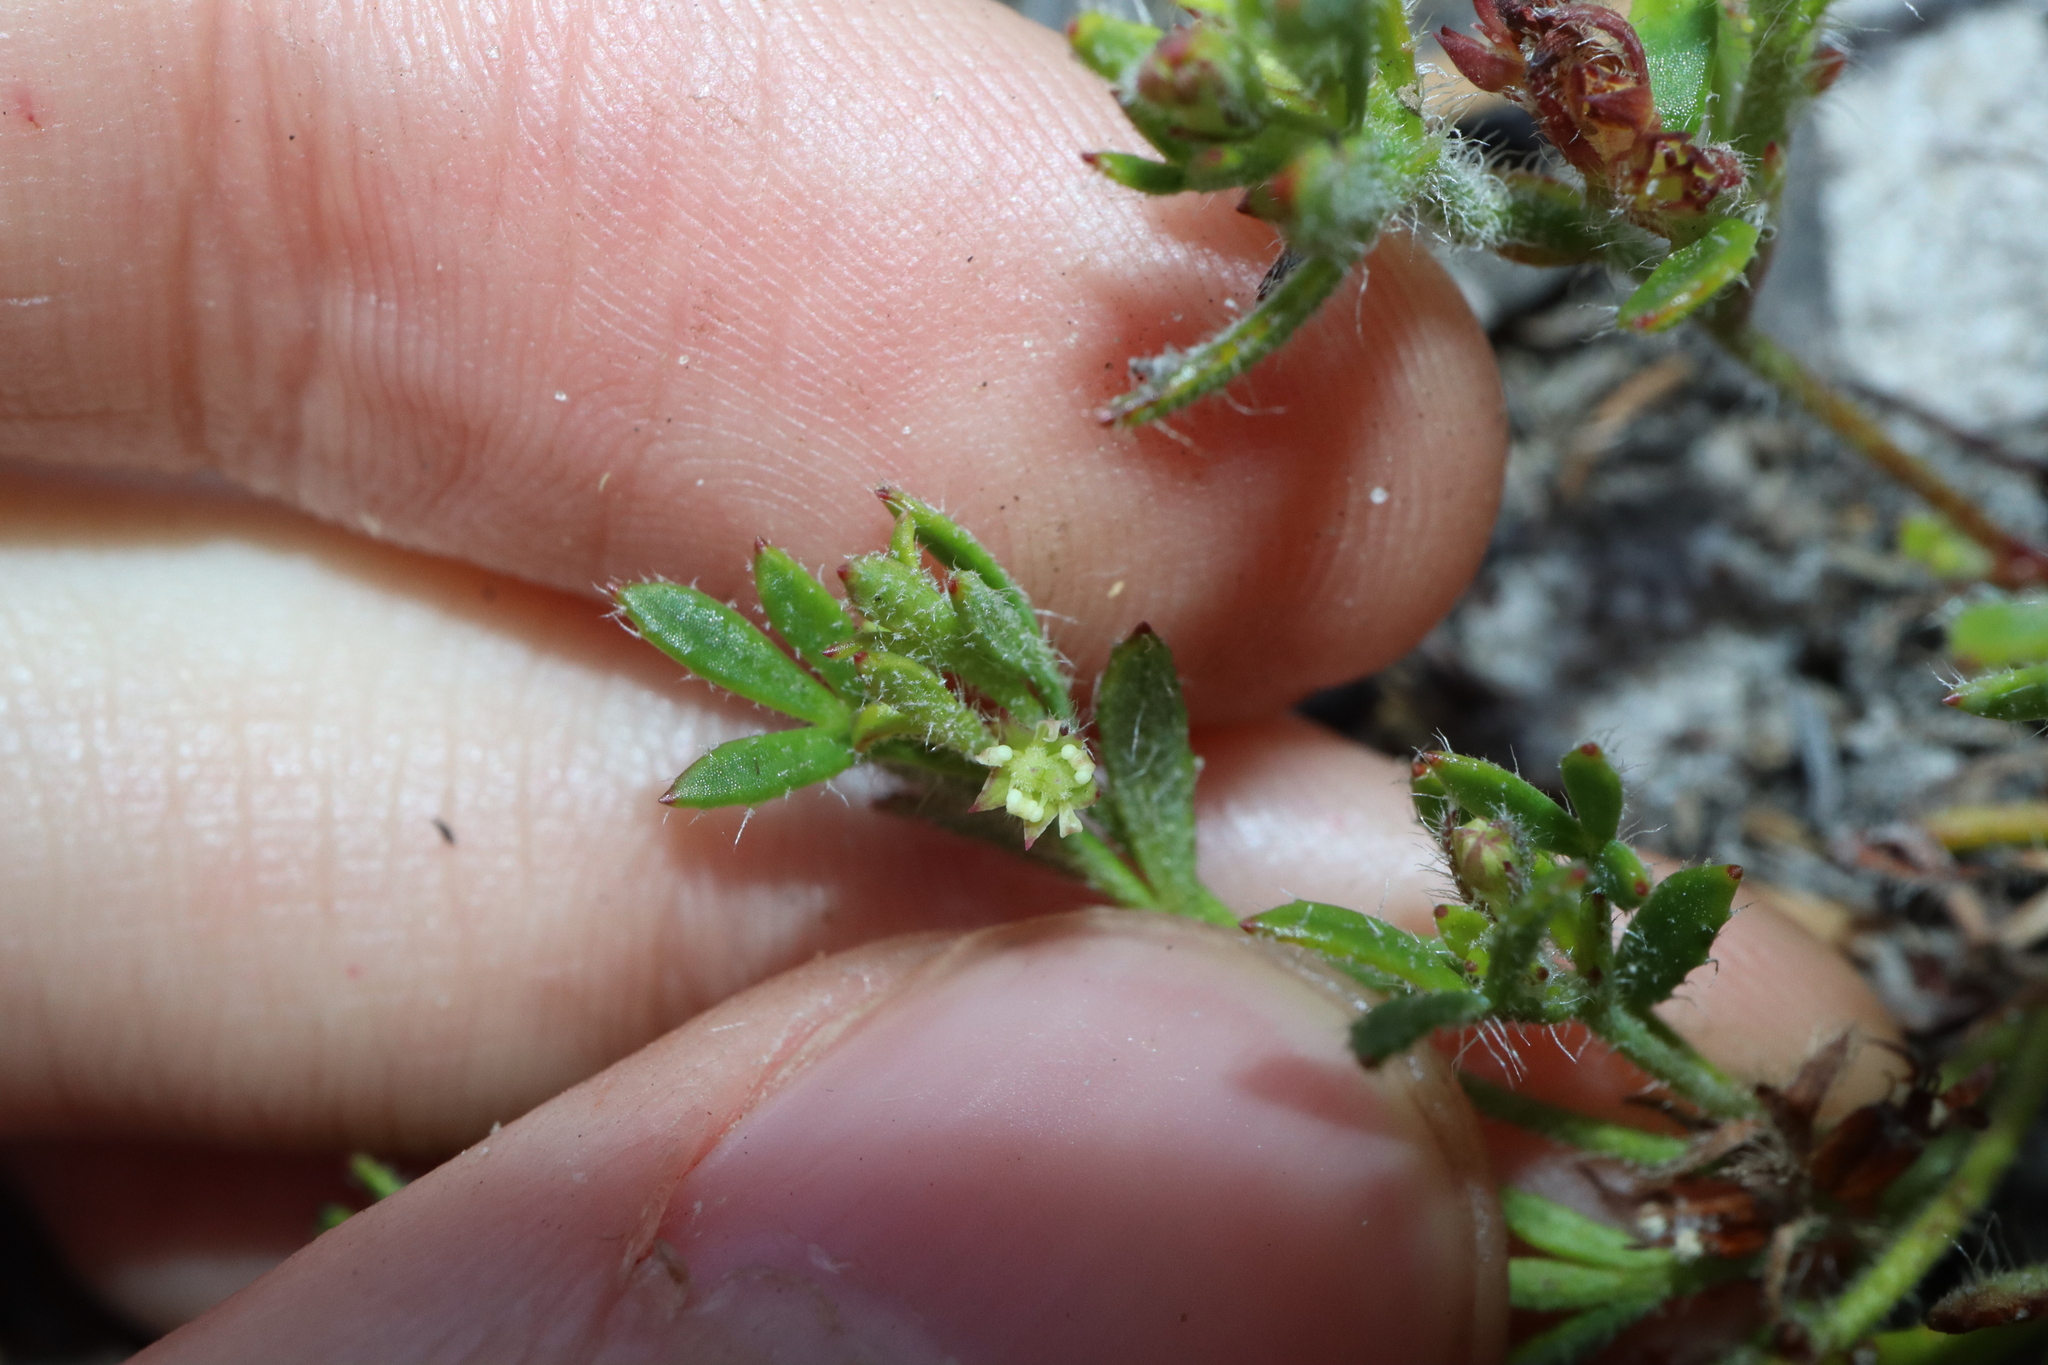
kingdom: Plantae
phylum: Tracheophyta
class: Magnoliopsida
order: Apiales
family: Apiaceae
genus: Xanthosia
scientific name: Xanthosia huegelii
